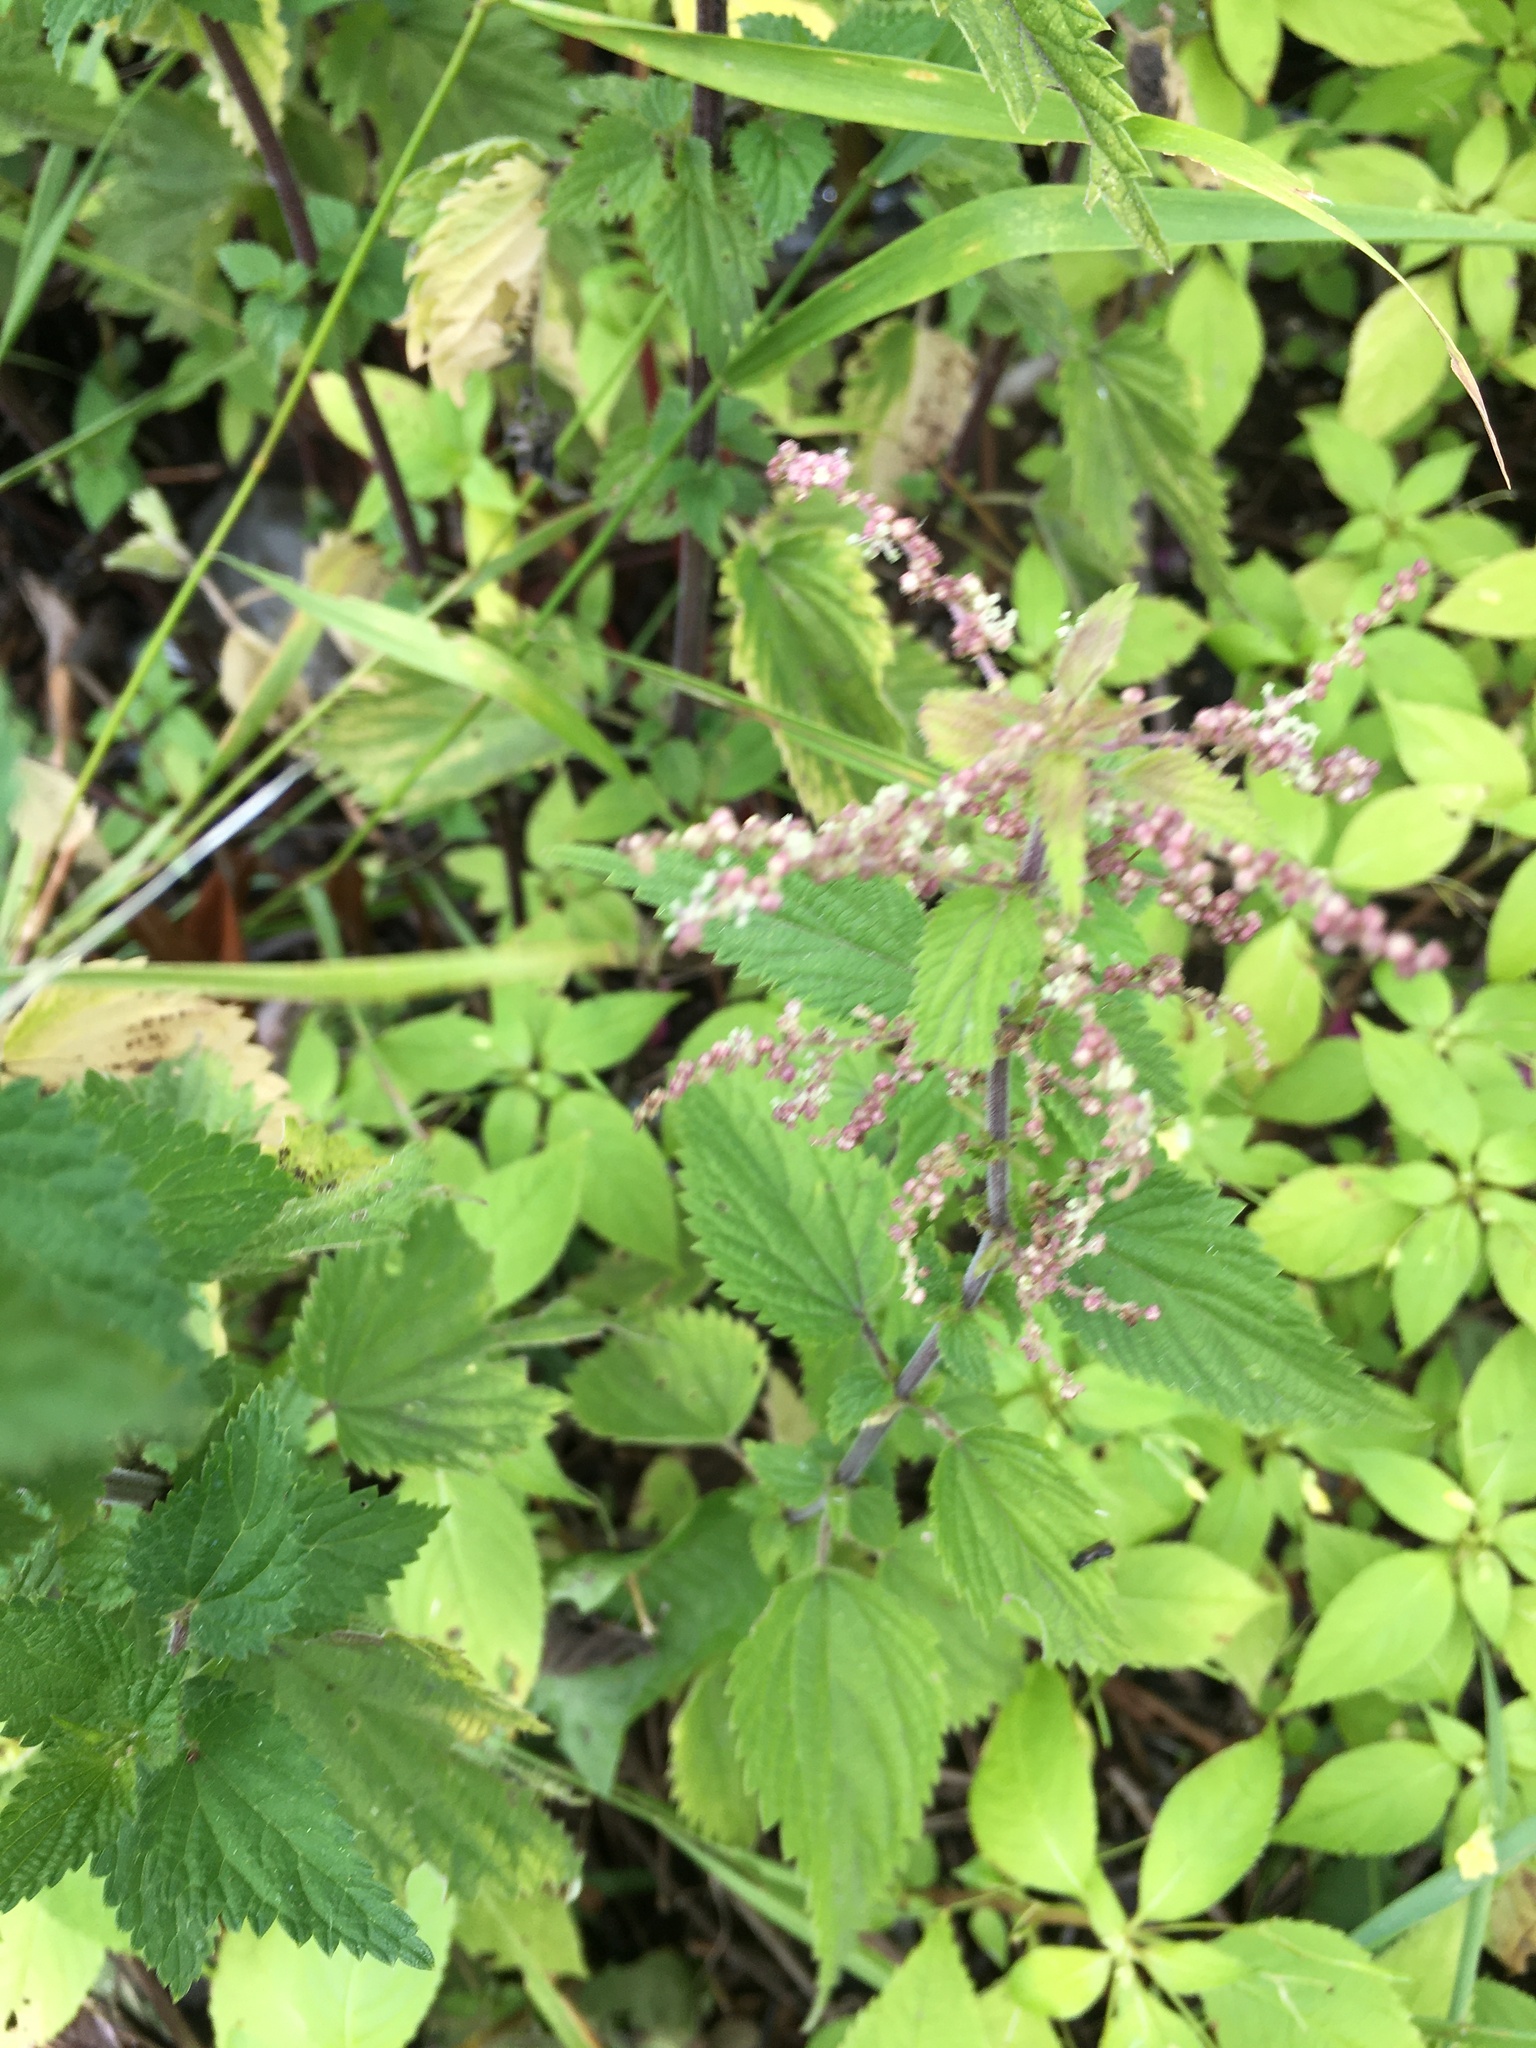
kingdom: Plantae
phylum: Tracheophyta
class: Magnoliopsida
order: Rosales
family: Urticaceae
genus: Urtica
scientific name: Urtica dioica
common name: Common nettle
